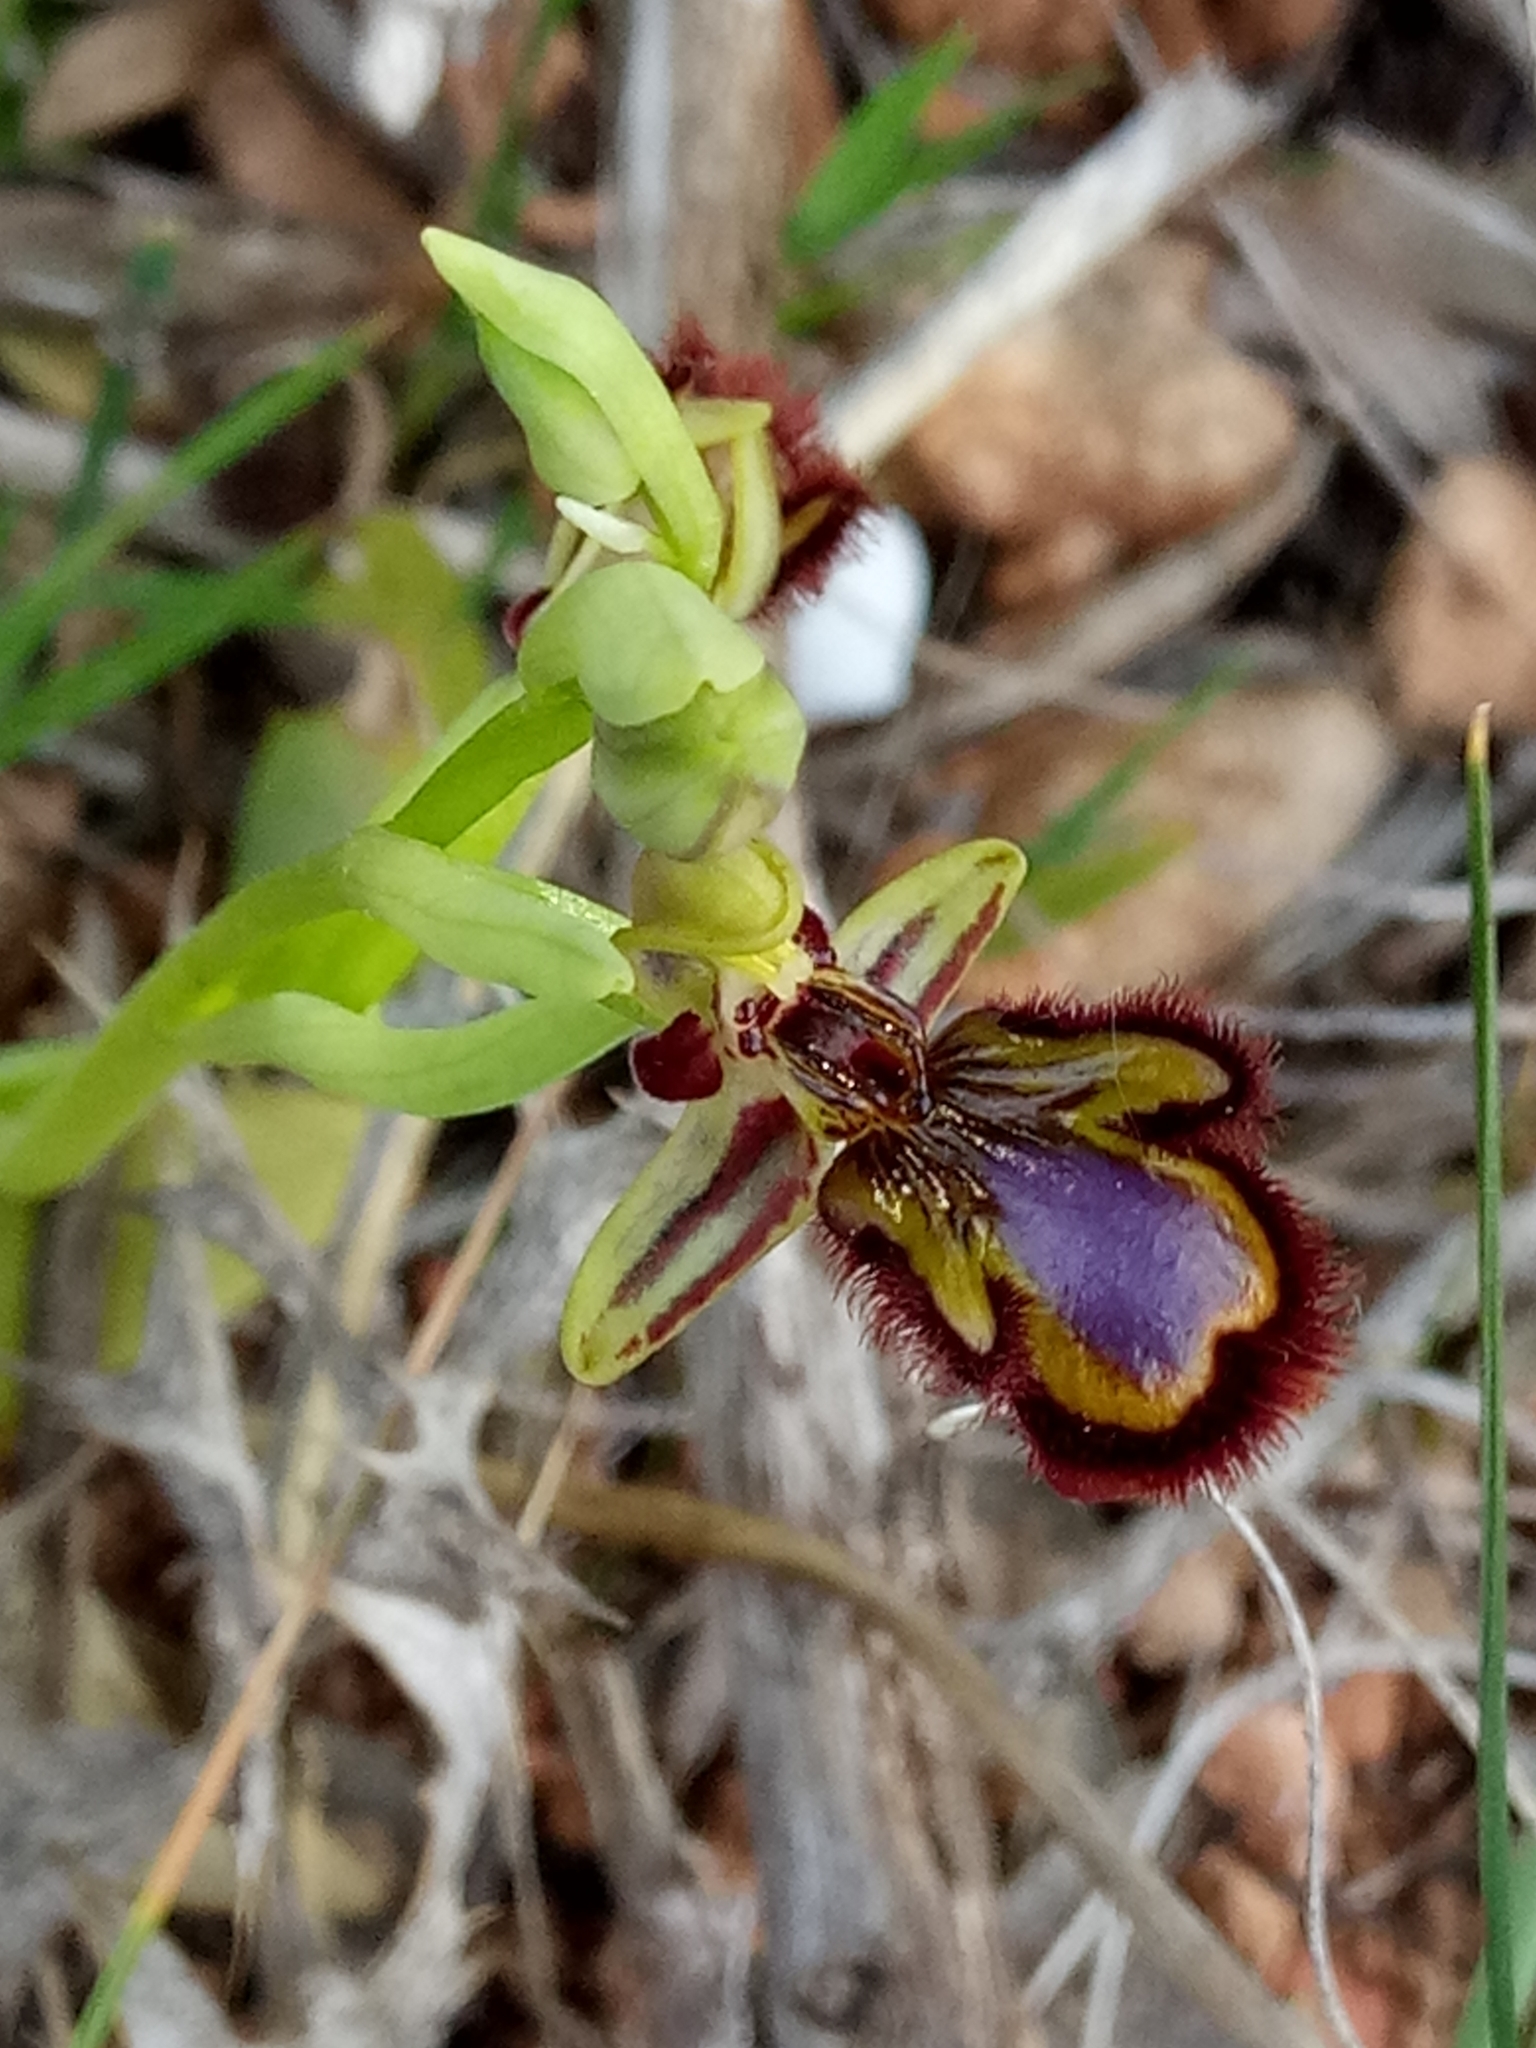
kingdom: Plantae
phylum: Tracheophyta
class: Liliopsida
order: Asparagales
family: Orchidaceae
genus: Ophrys
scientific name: Ophrys speculum
